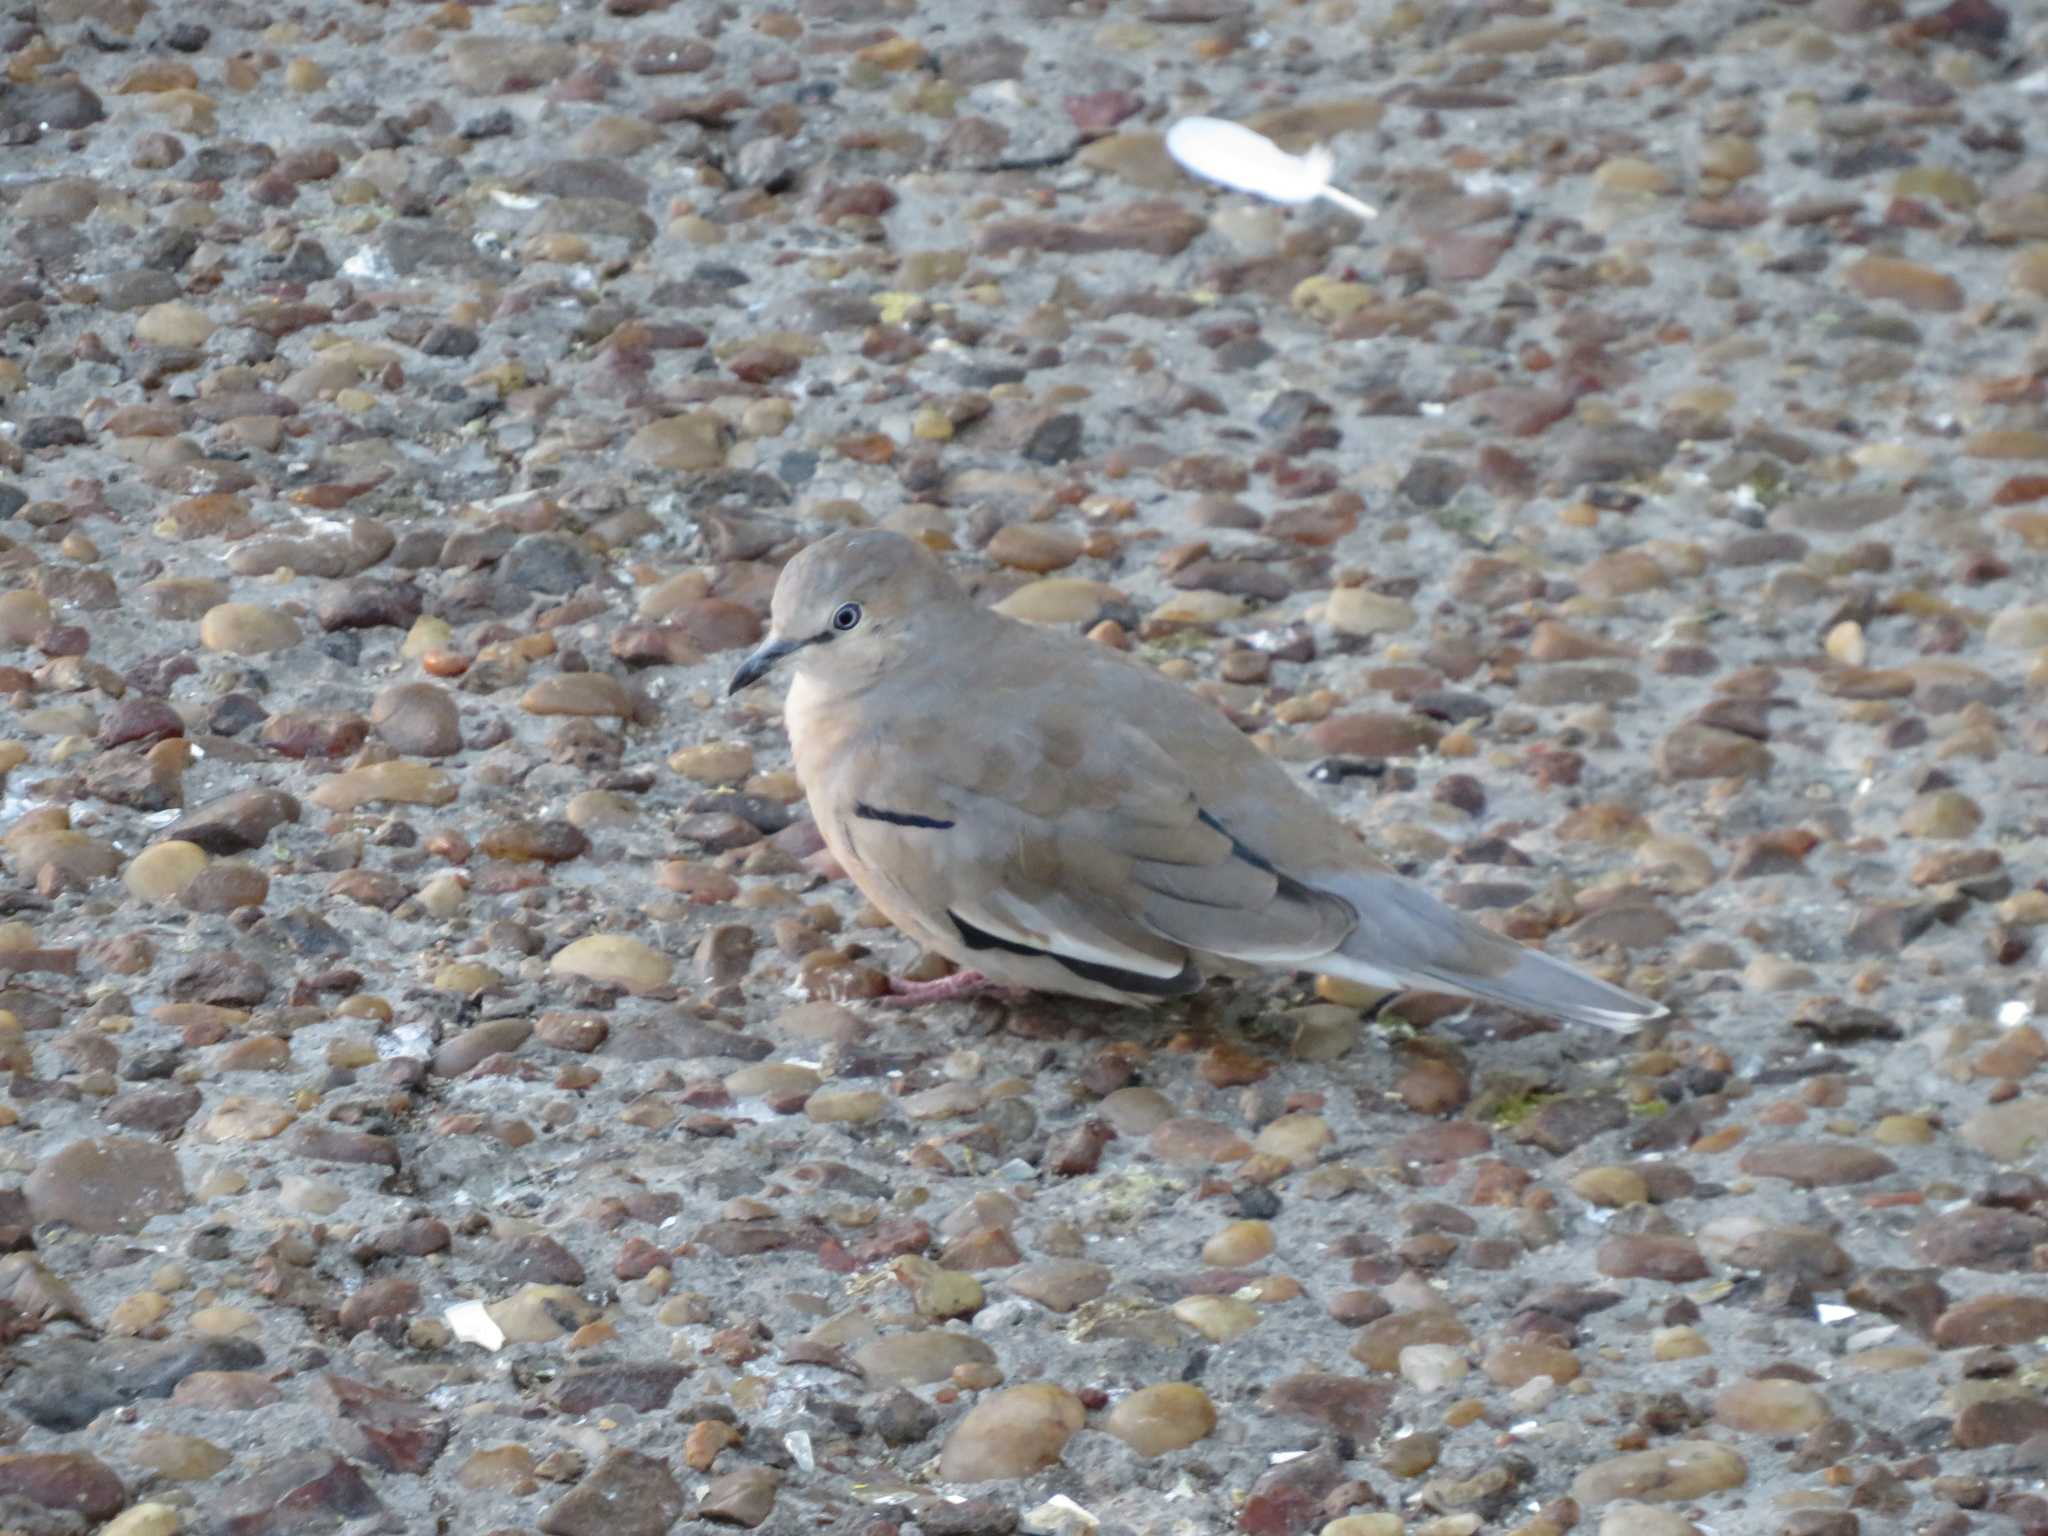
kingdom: Animalia
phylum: Chordata
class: Aves
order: Columbiformes
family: Columbidae
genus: Columbina
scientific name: Columbina picui
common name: Picui ground dove
